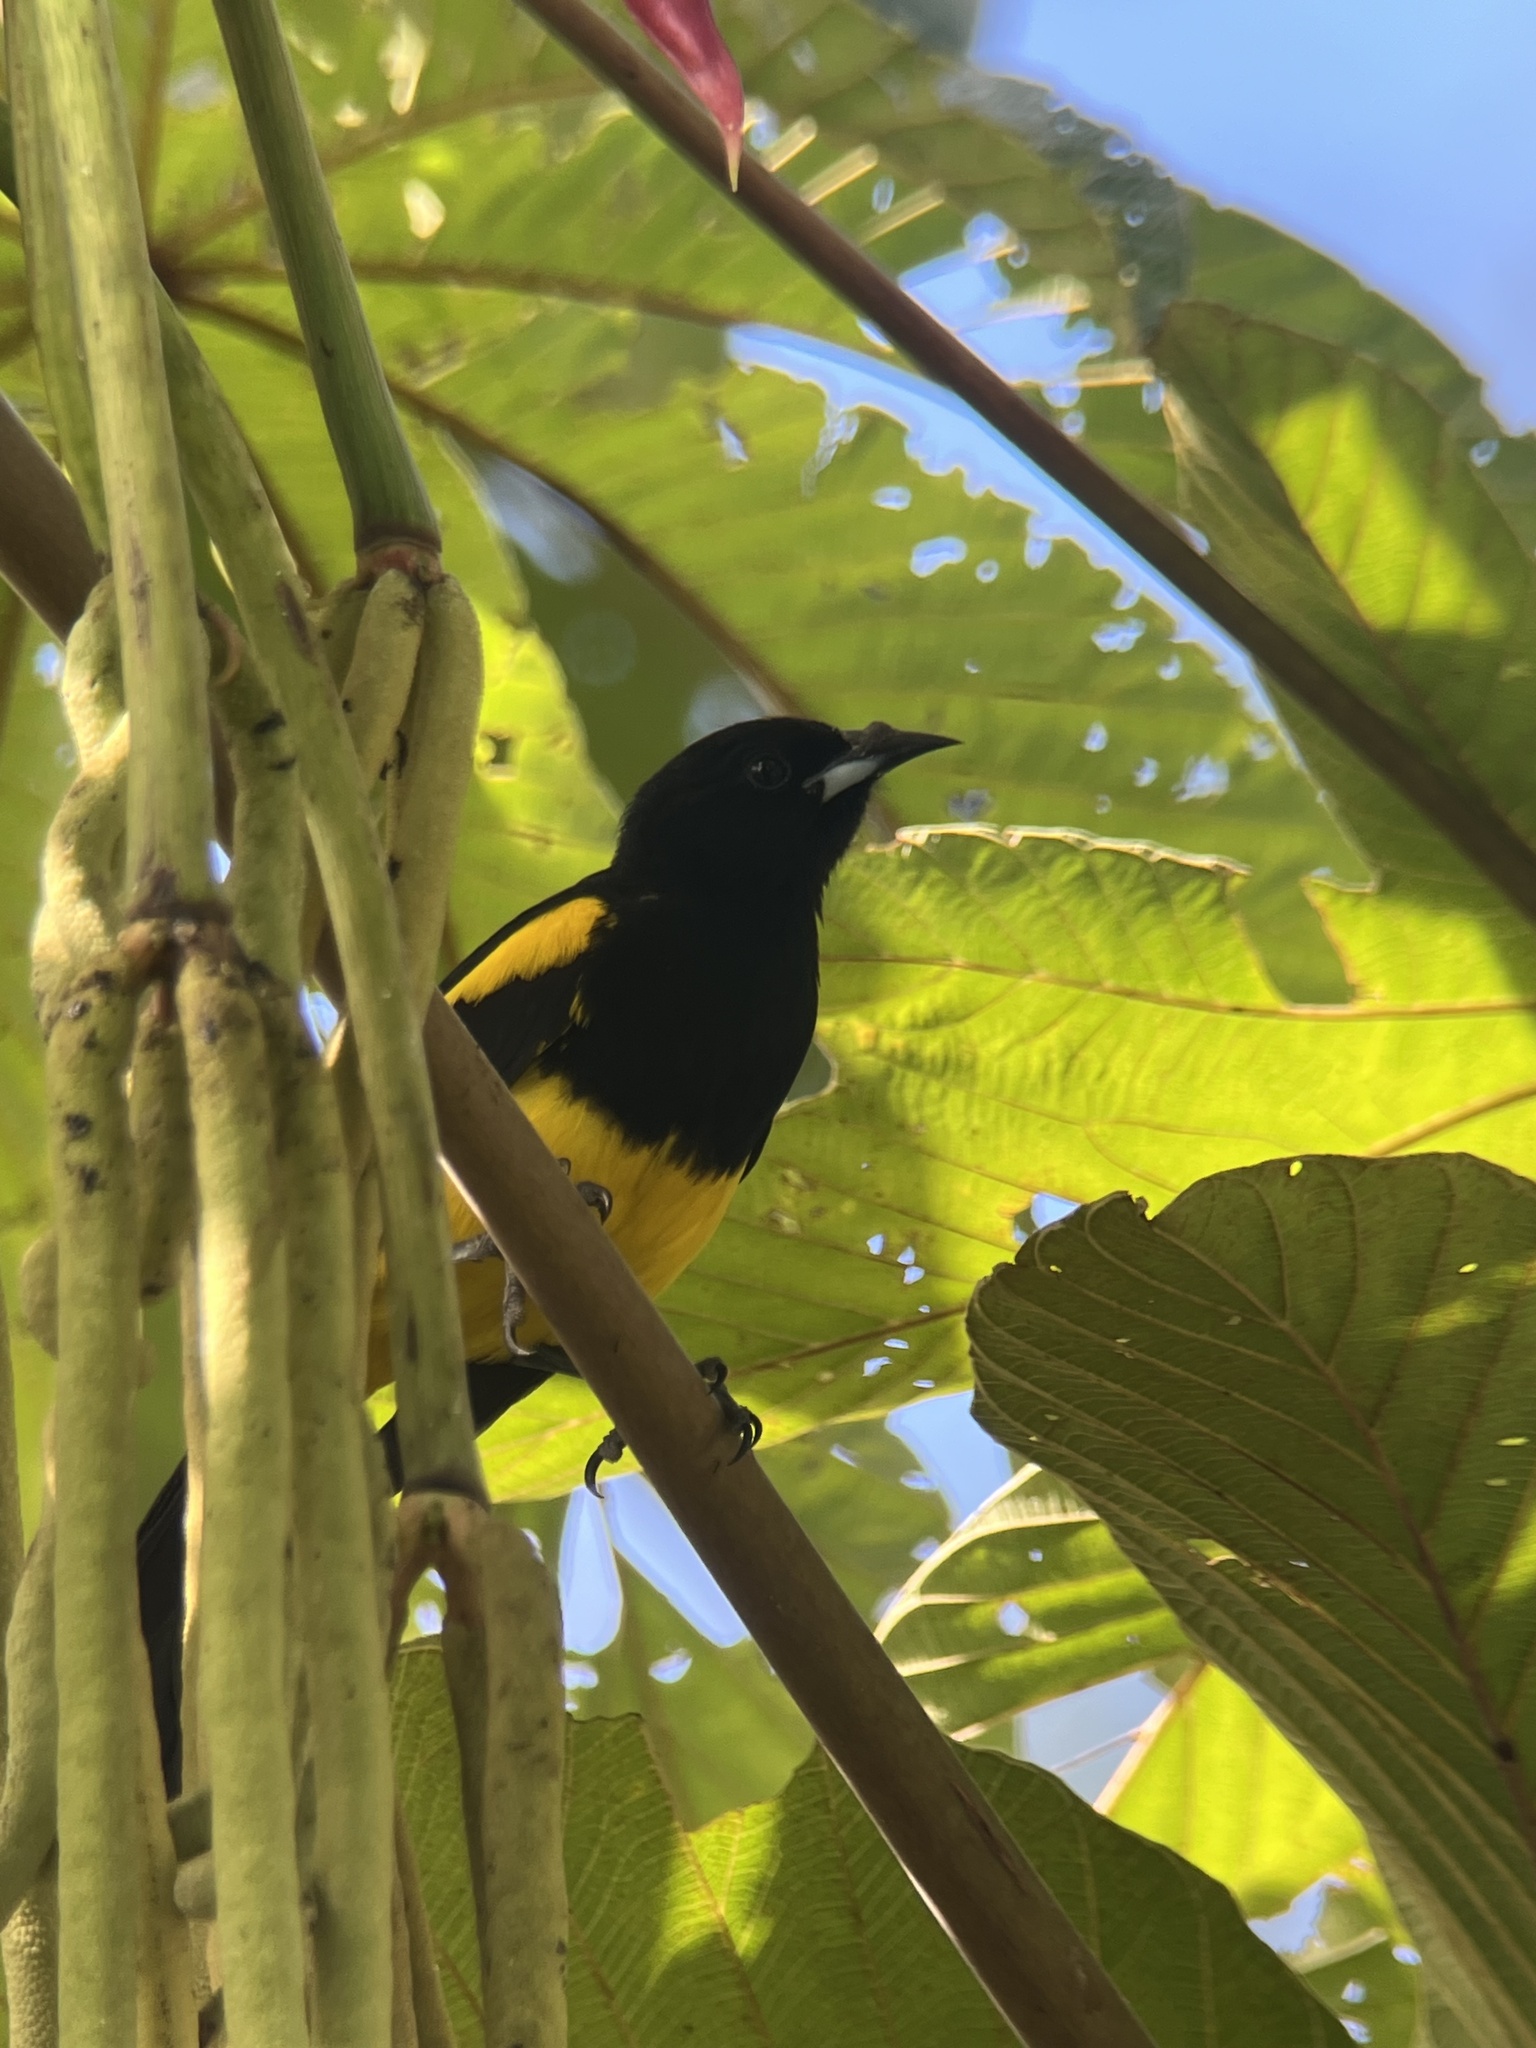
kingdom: Animalia
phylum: Chordata
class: Aves
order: Passeriformes
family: Icteridae
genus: Icterus
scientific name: Icterus prosthemelas
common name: Black-cowled oriole
